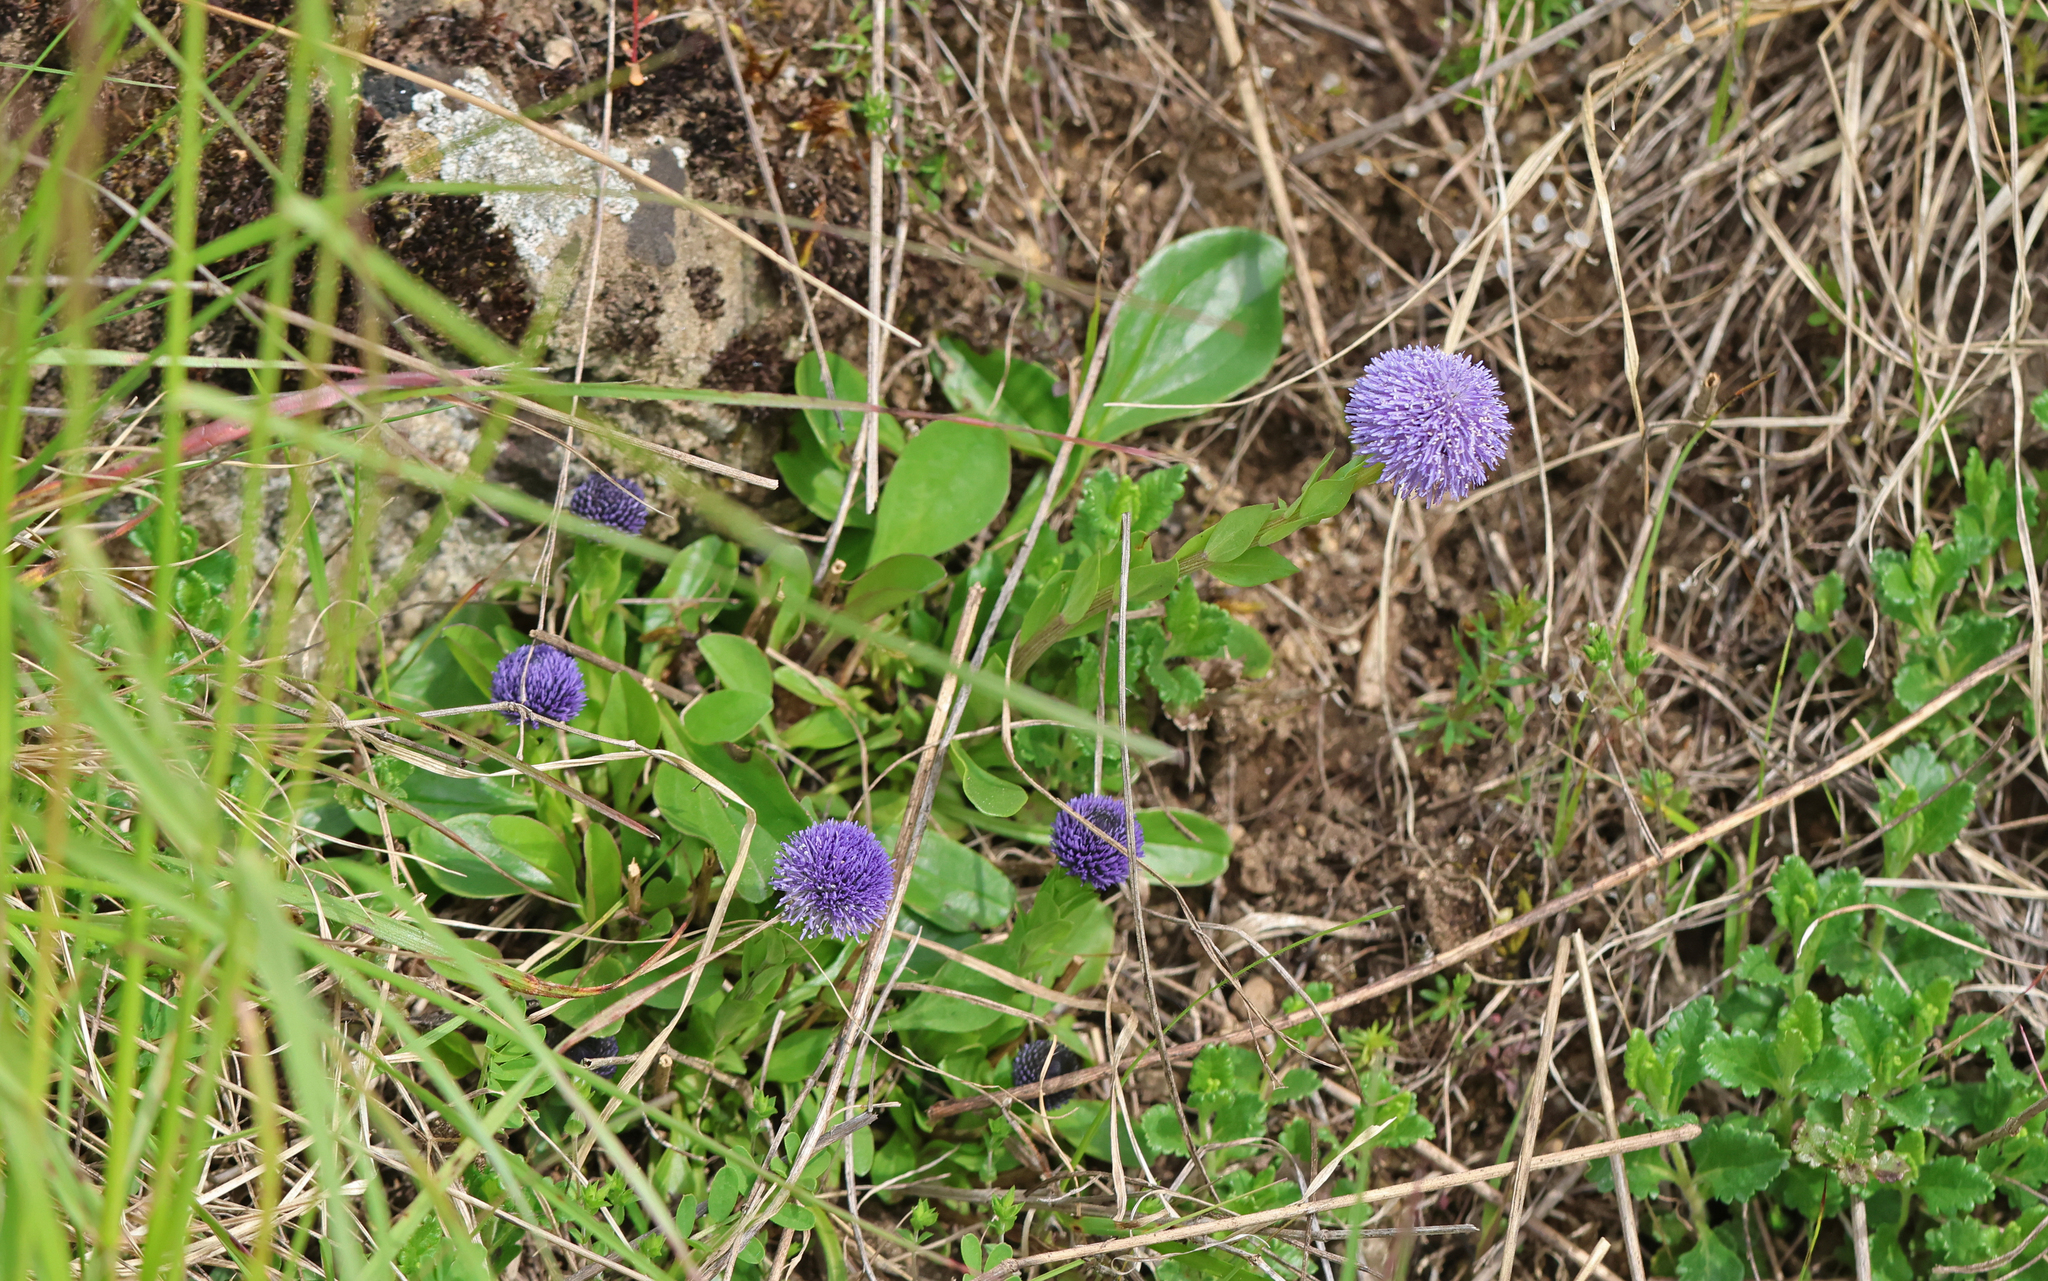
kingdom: Plantae
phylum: Tracheophyta
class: Magnoliopsida
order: Lamiales
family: Plantaginaceae
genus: Globularia
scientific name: Globularia bisnagarica
